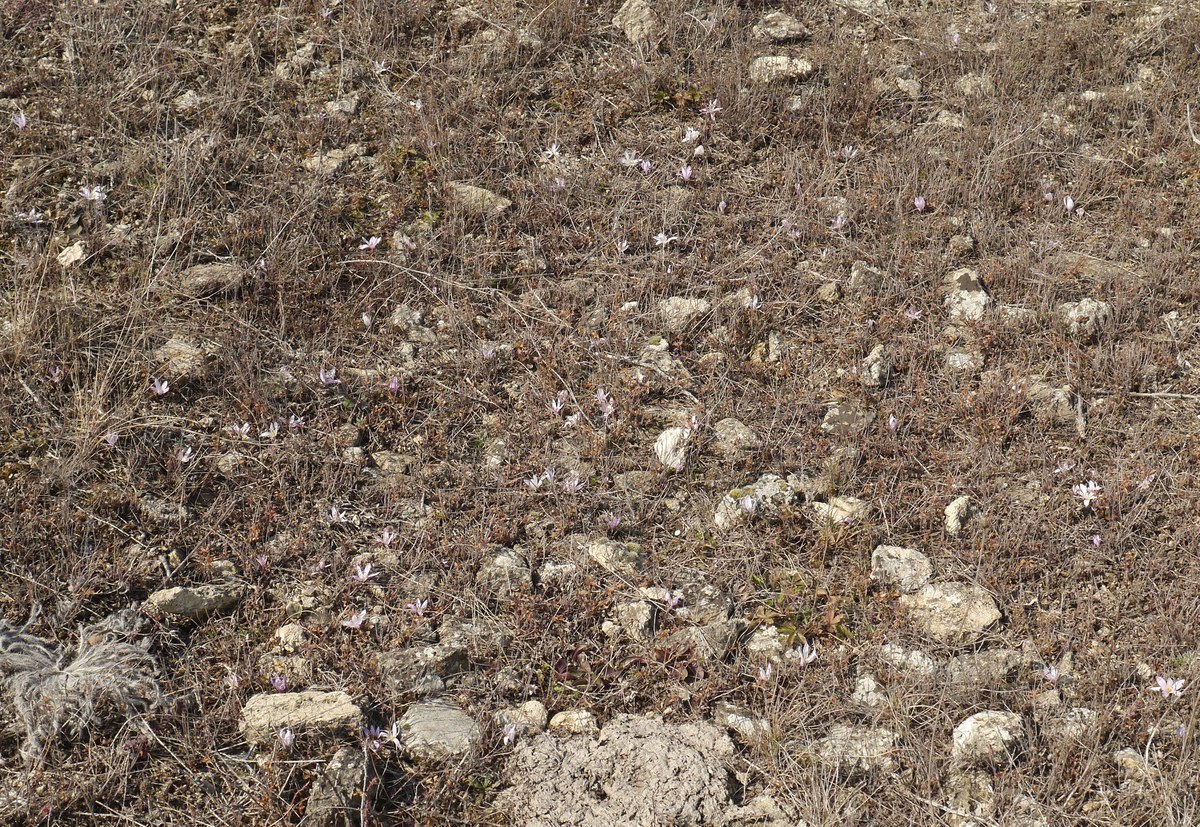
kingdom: Plantae
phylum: Tracheophyta
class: Liliopsida
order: Liliales
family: Colchicaceae
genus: Colchicum
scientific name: Colchicum bulbocodium
